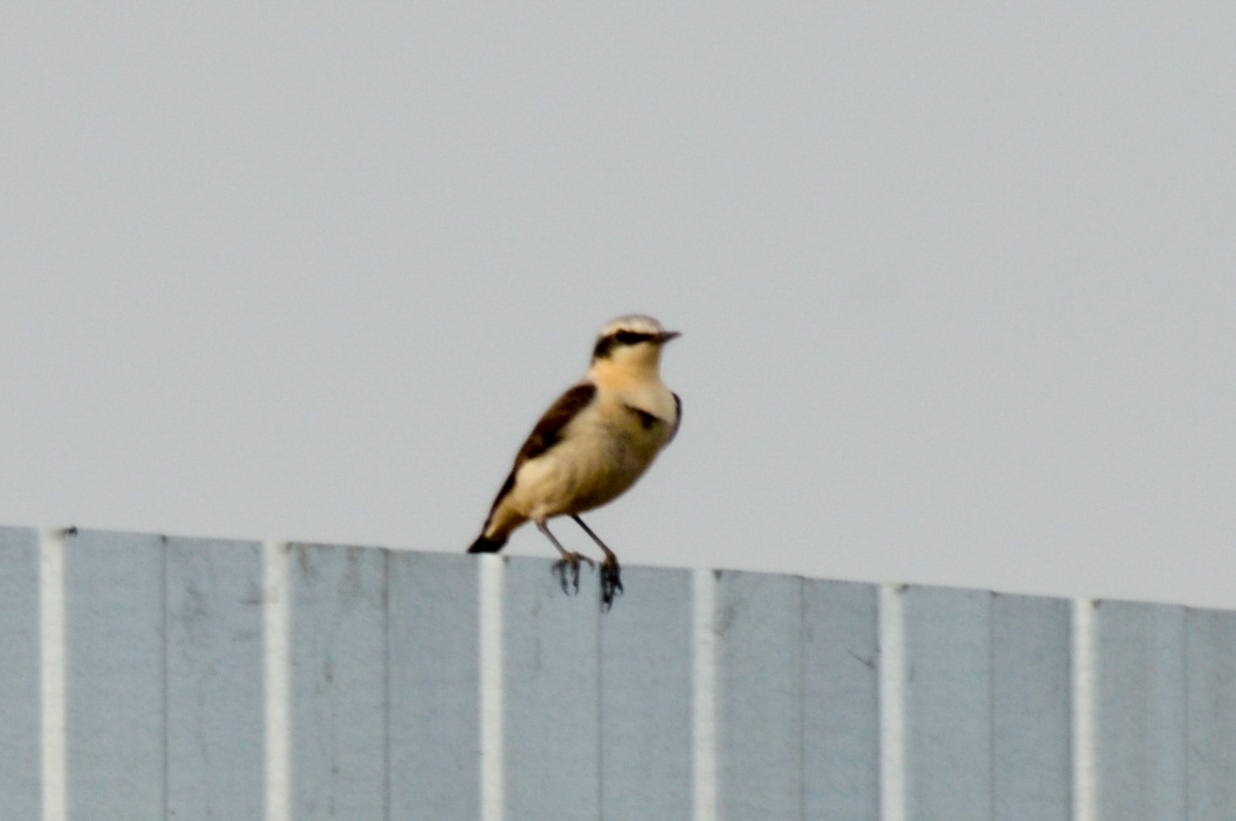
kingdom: Animalia
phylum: Chordata
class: Aves
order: Passeriformes
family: Muscicapidae
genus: Oenanthe
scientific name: Oenanthe oenanthe
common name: Northern wheatear
